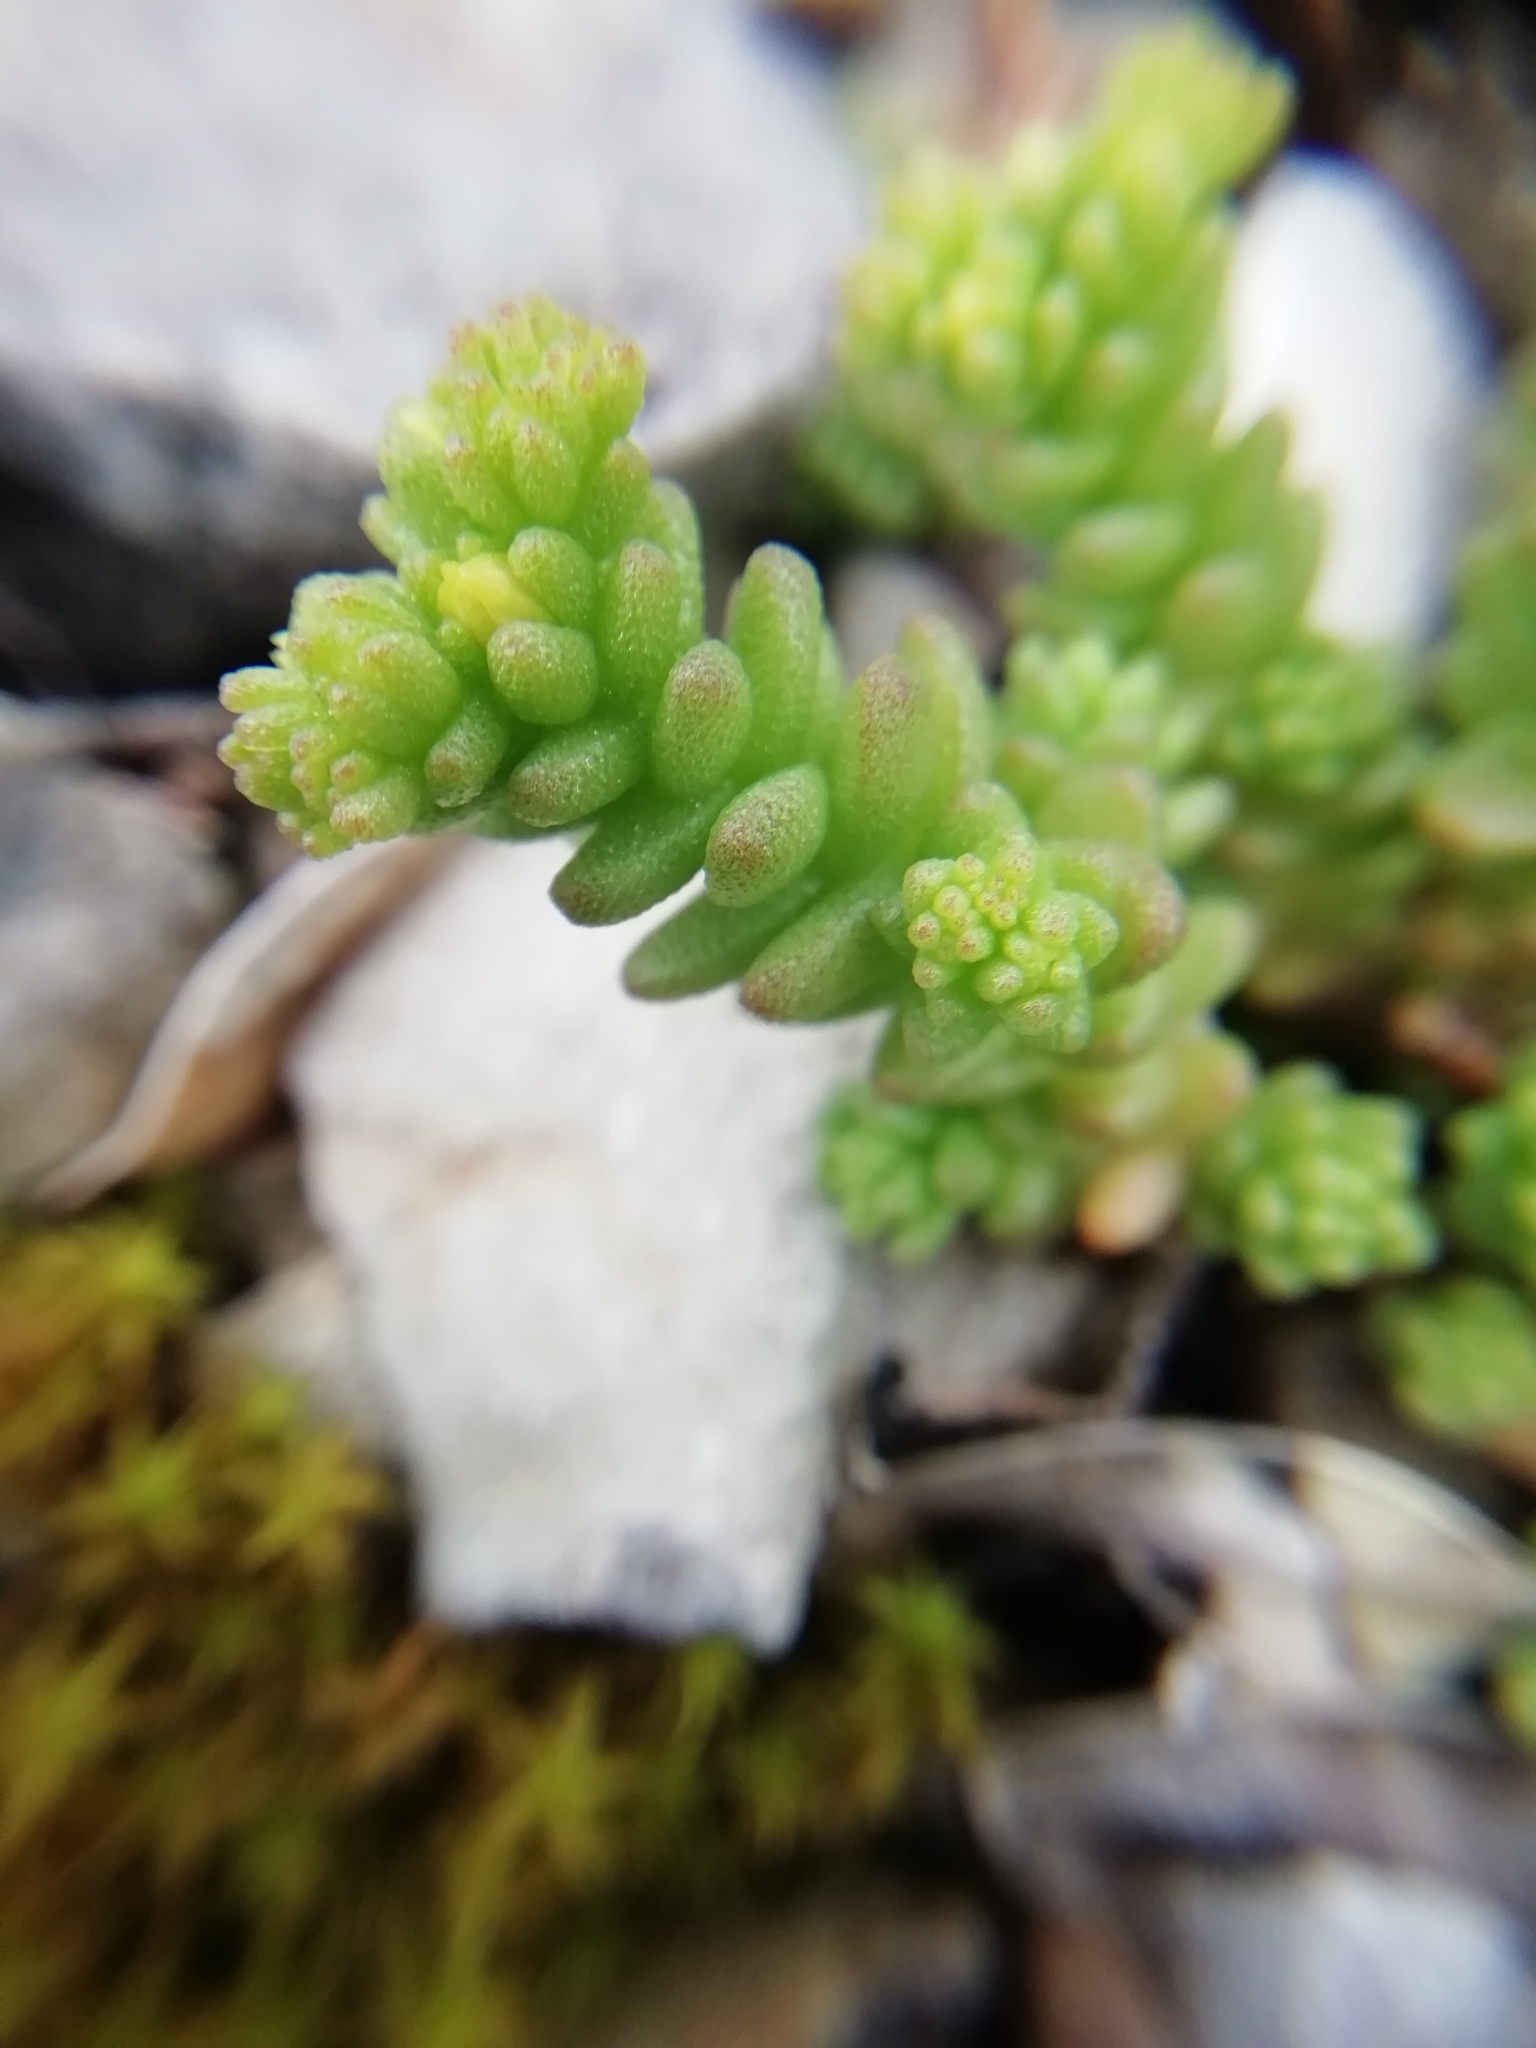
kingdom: Plantae
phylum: Tracheophyta
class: Magnoliopsida
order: Saxifragales
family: Crassulaceae
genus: Sedum
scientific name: Sedum acre
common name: Biting stonecrop
